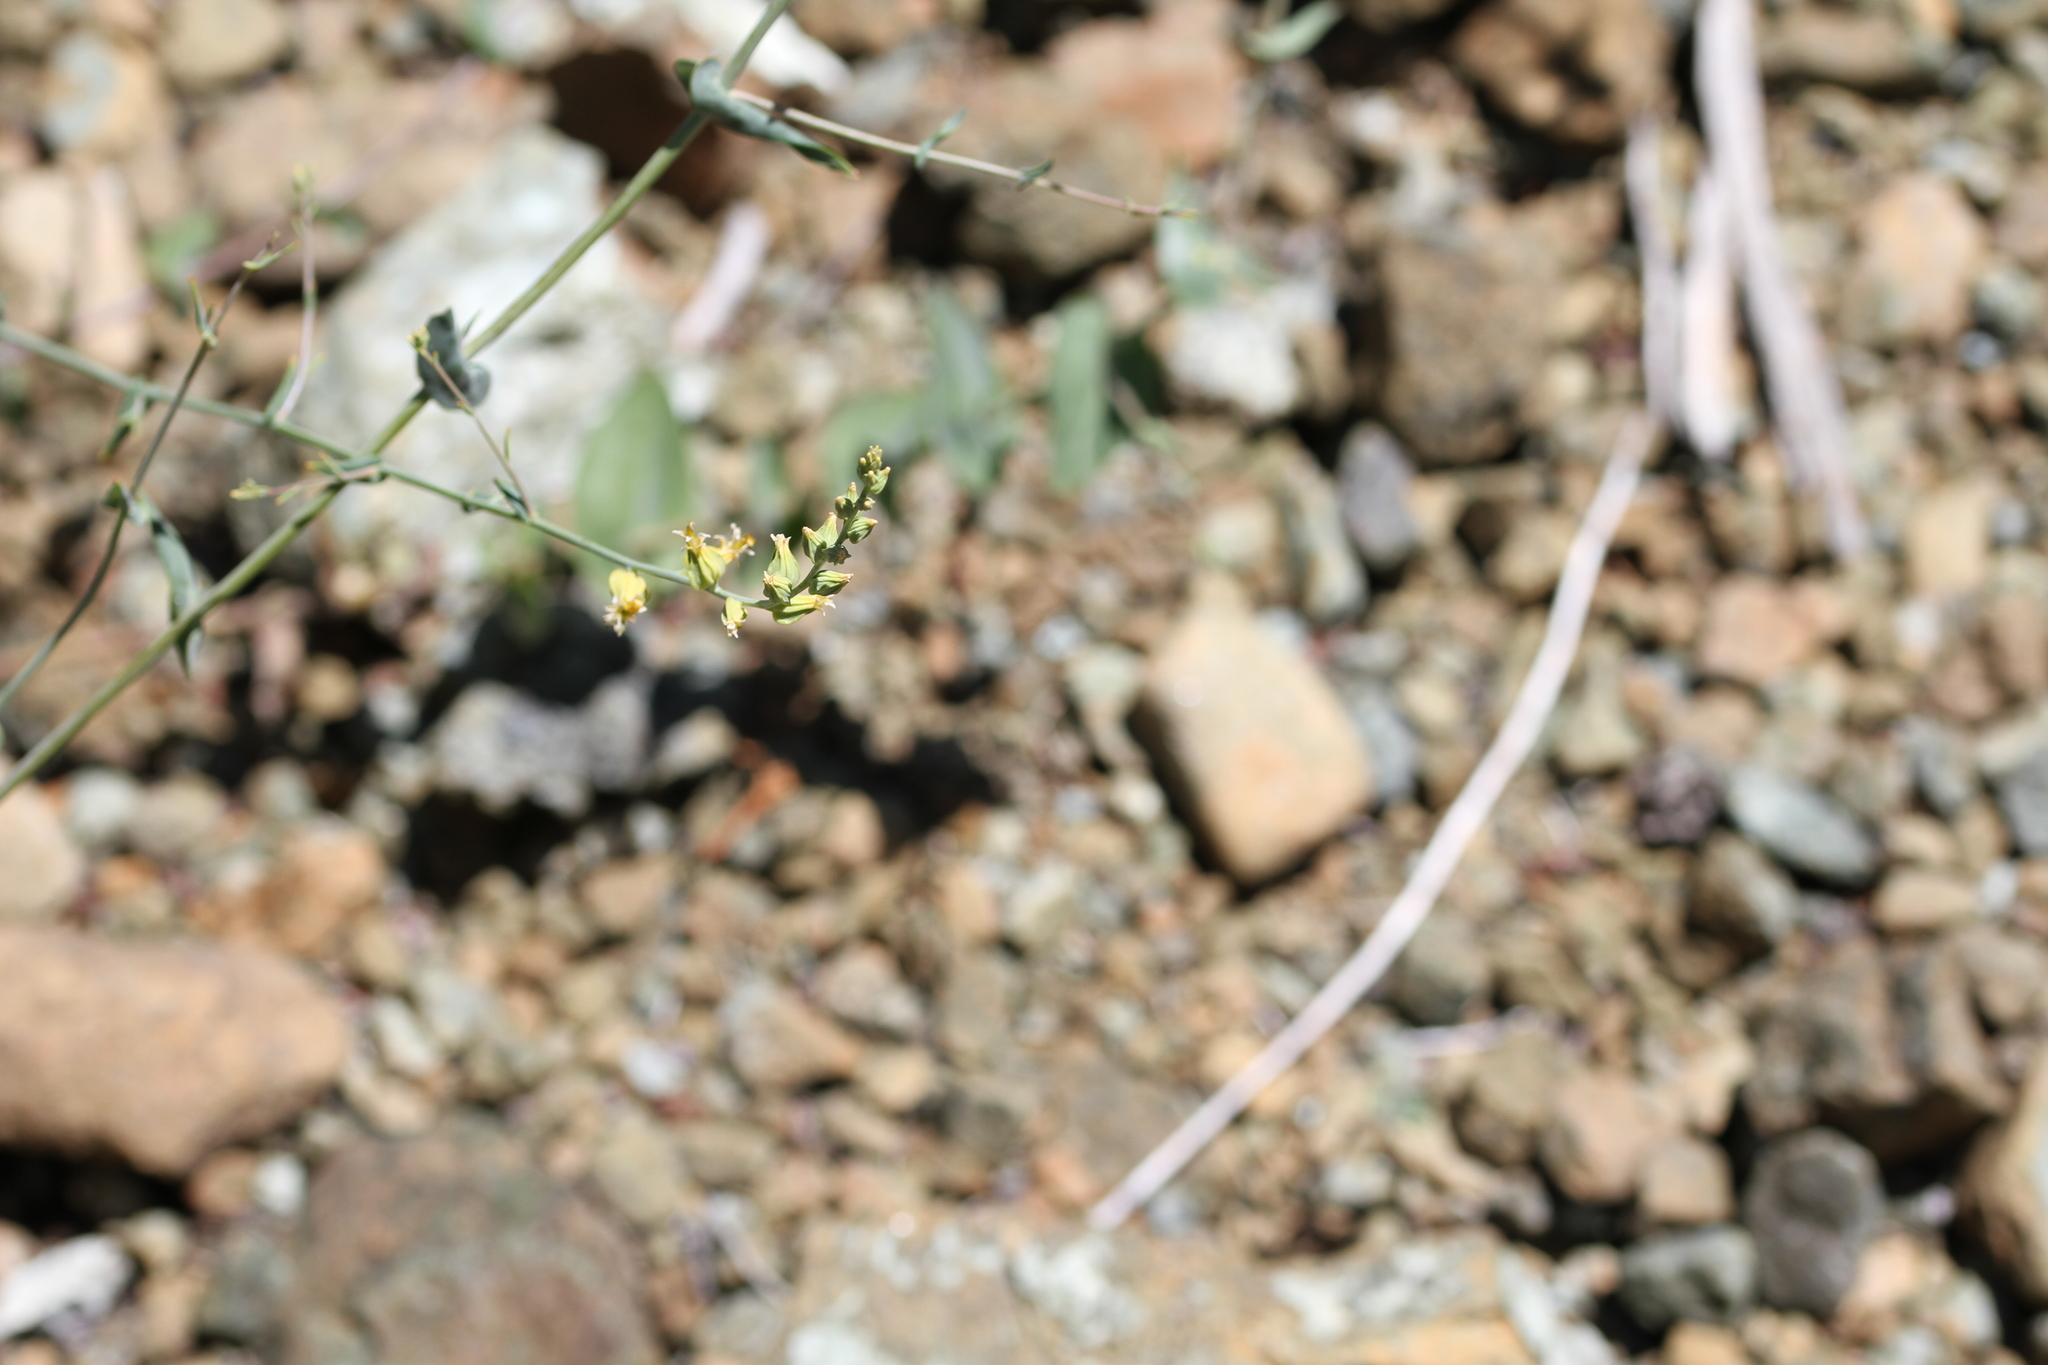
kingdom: Plantae
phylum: Tracheophyta
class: Magnoliopsida
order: Brassicales
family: Brassicaceae
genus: Streptanthus
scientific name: Streptanthus morrisonii
